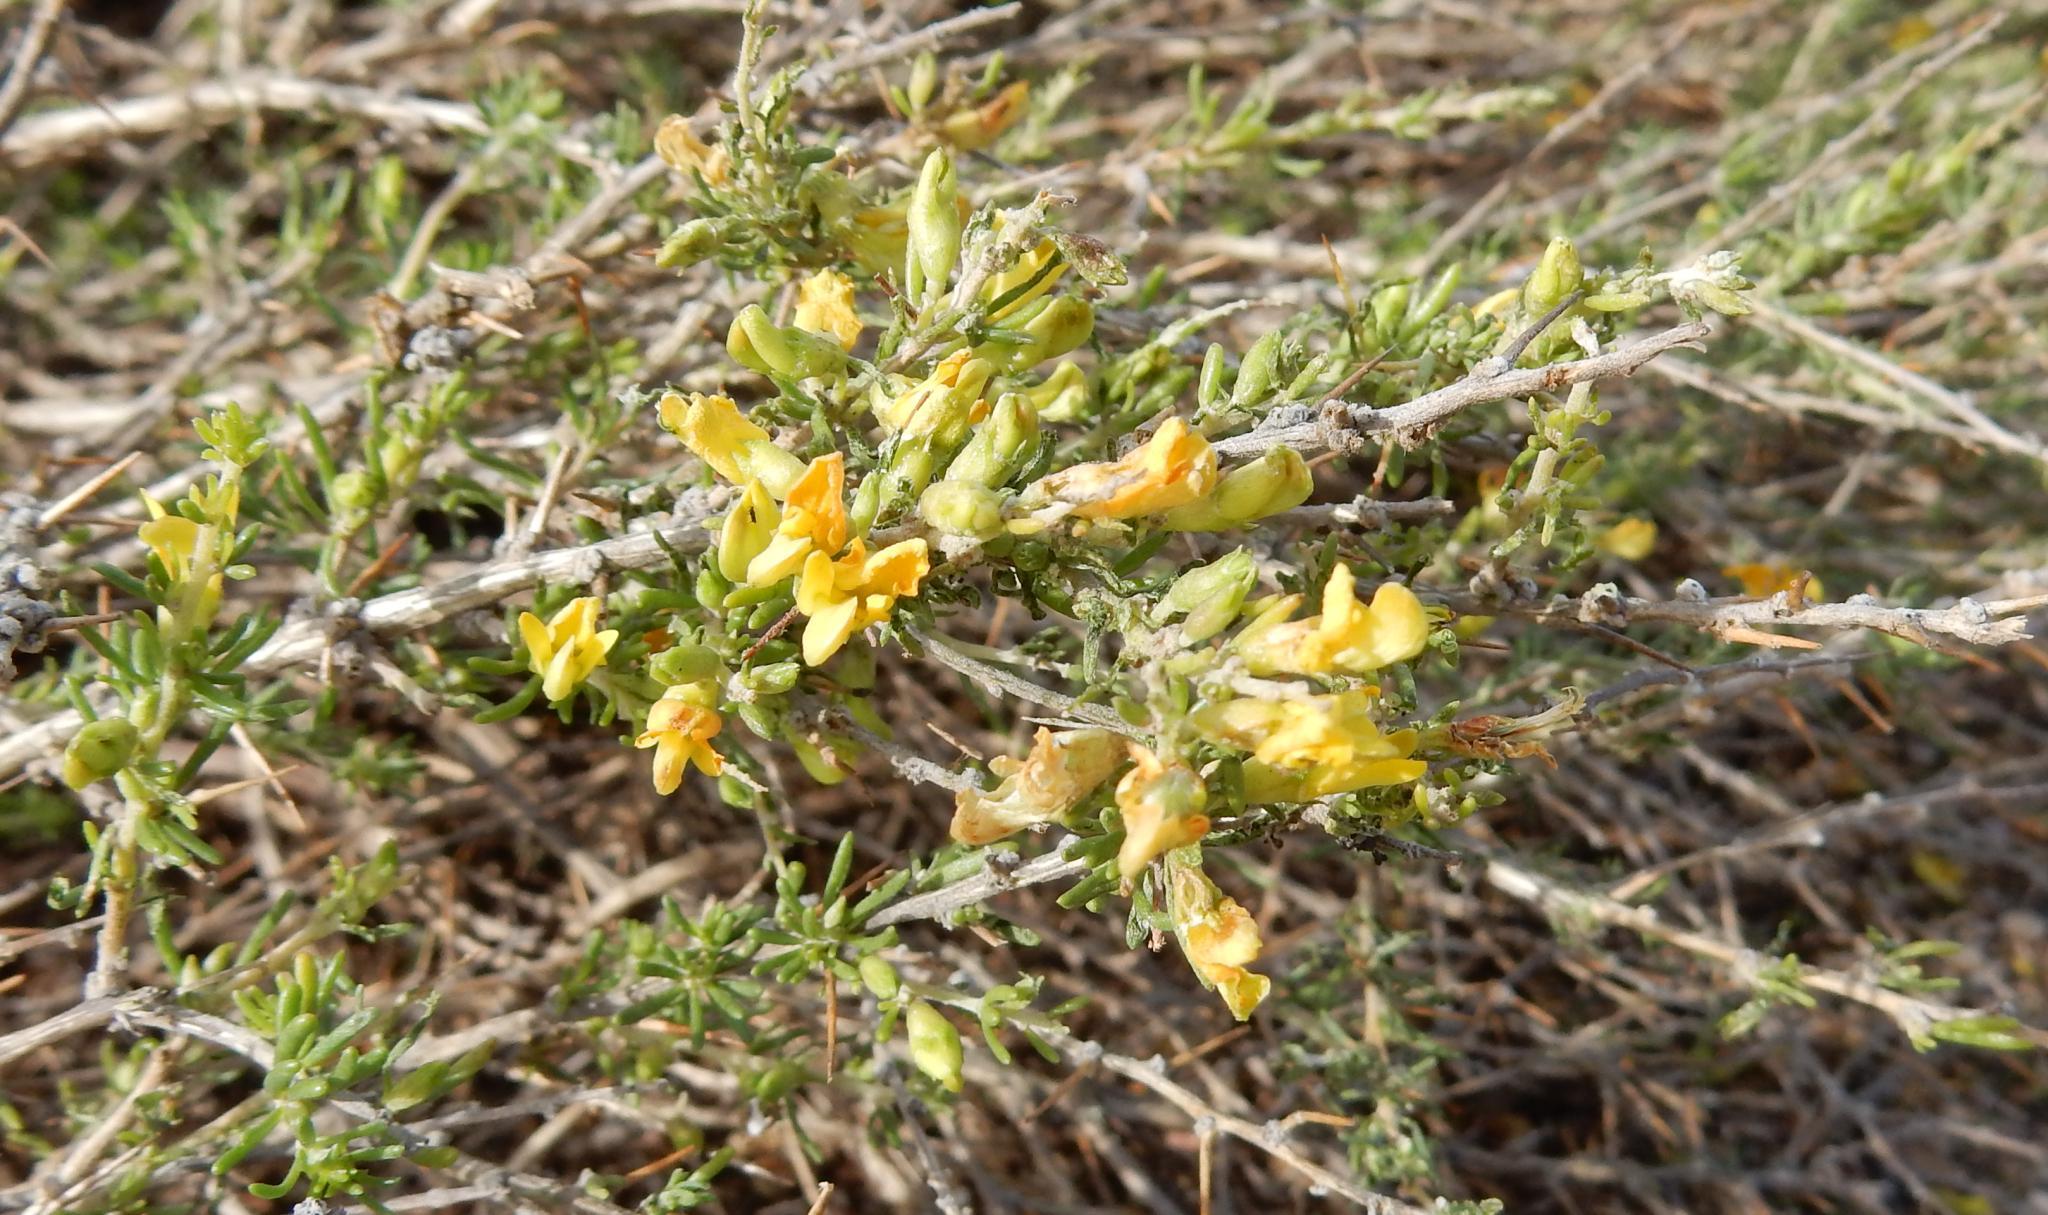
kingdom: Plantae
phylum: Tracheophyta
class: Magnoliopsida
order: Fabales
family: Fabaceae
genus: Aspalathus
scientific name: Aspalathus spinosa
